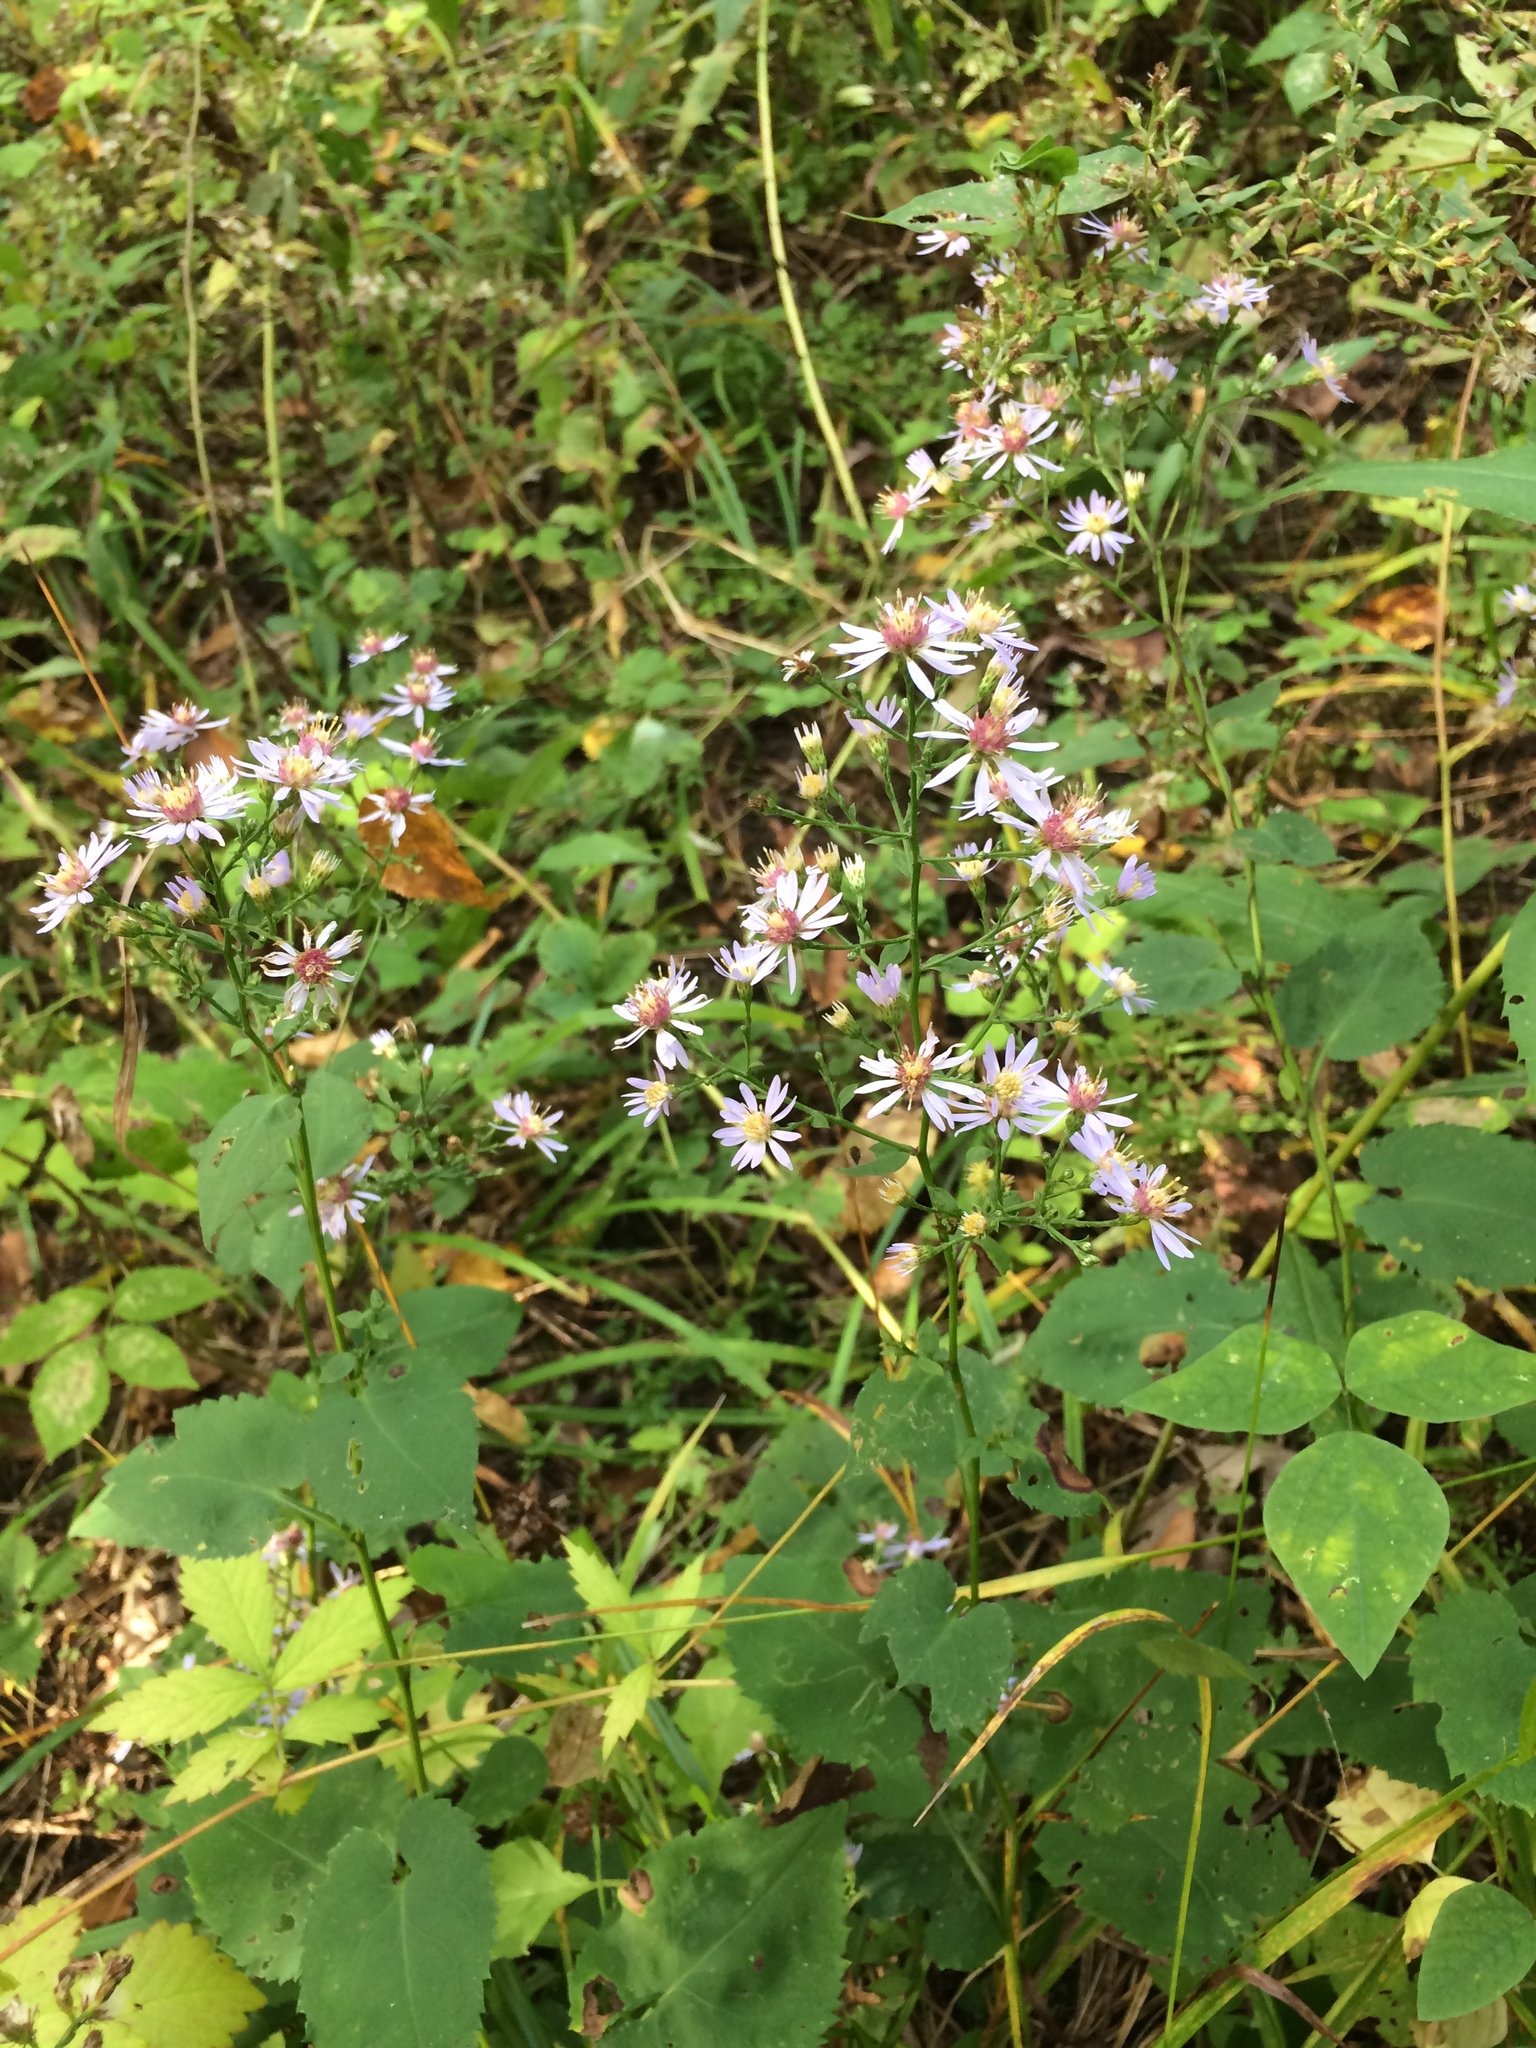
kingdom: Plantae
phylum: Tracheophyta
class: Magnoliopsida
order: Asterales
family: Asteraceae
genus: Symphyotrichum
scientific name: Symphyotrichum cordifolium
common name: Beeweed
